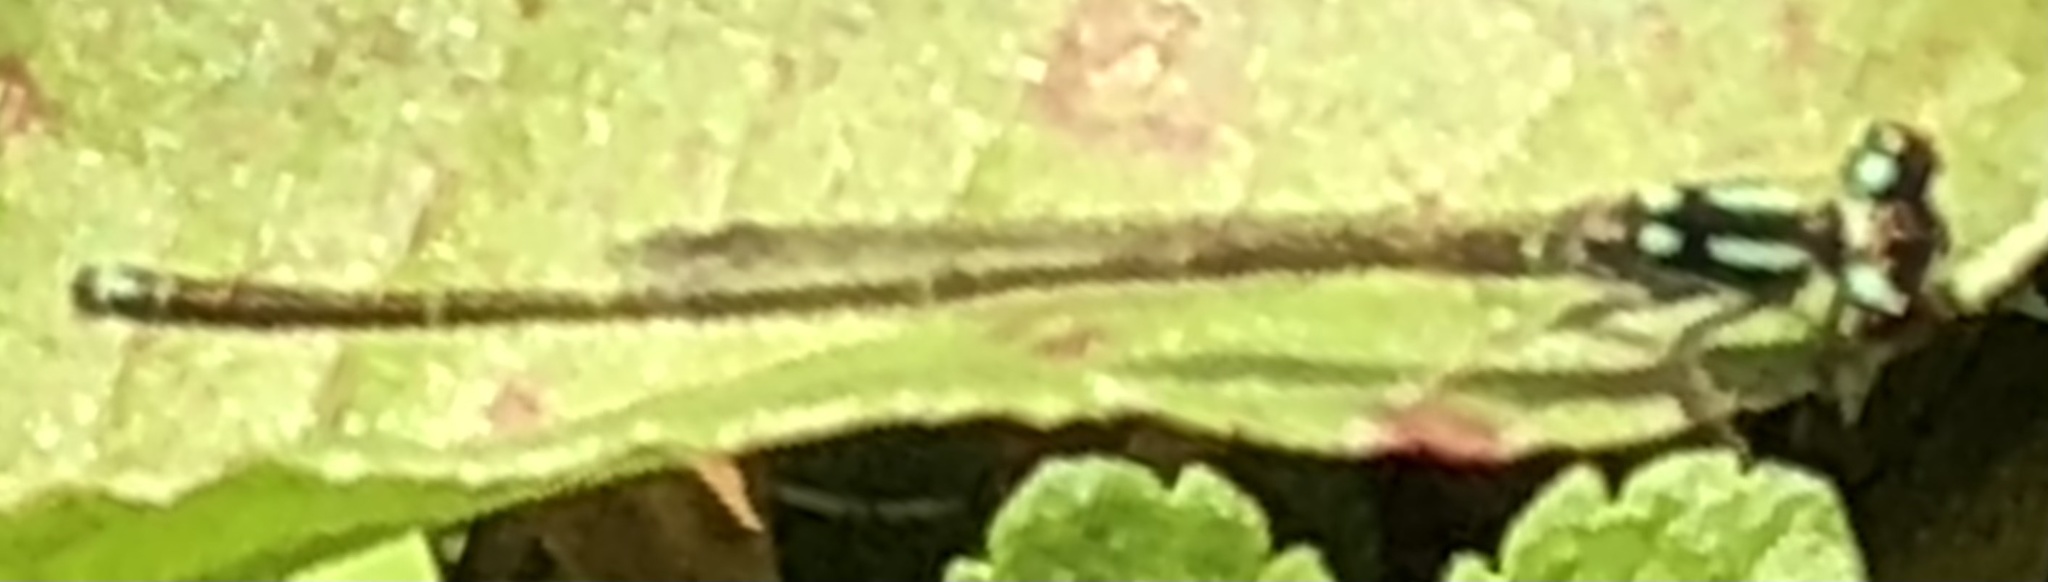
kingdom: Animalia
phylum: Arthropoda
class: Insecta
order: Odonata
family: Coenagrionidae
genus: Ischnura
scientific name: Ischnura posita
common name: Fragile forktail
